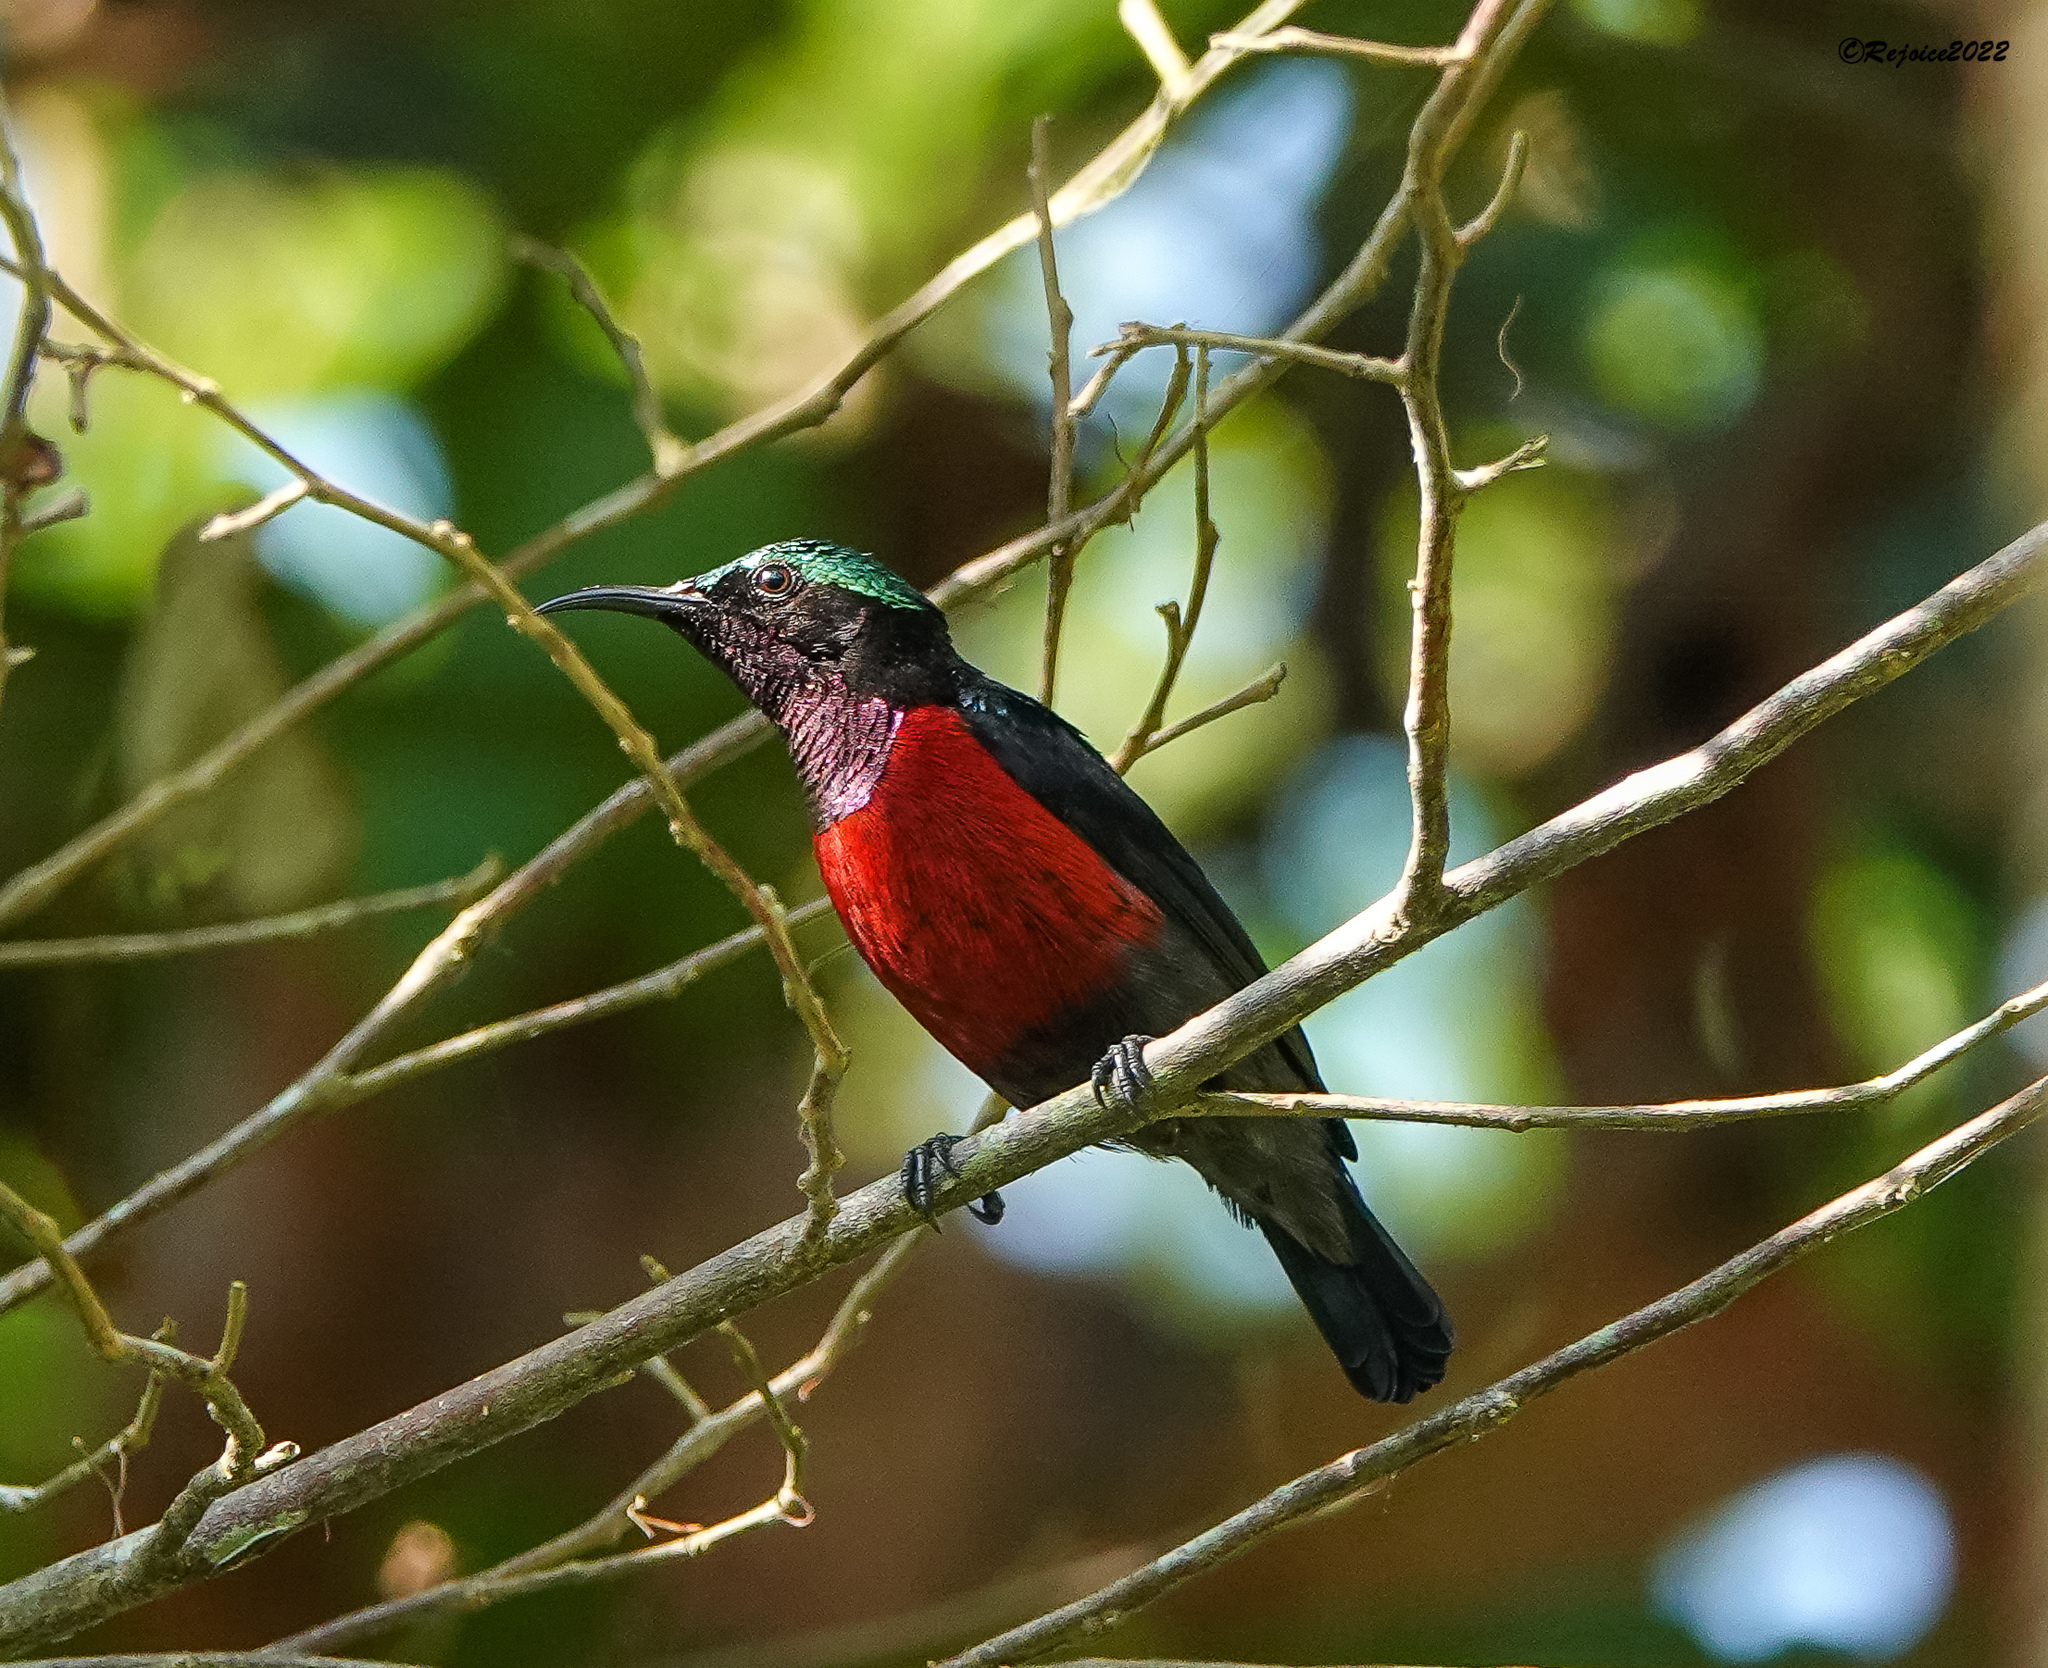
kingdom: Animalia
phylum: Chordata
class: Aves
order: Passeriformes
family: Nectariniidae
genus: Leptocoma
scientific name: Leptocoma brasiliana
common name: Van hasselt's sunbird
